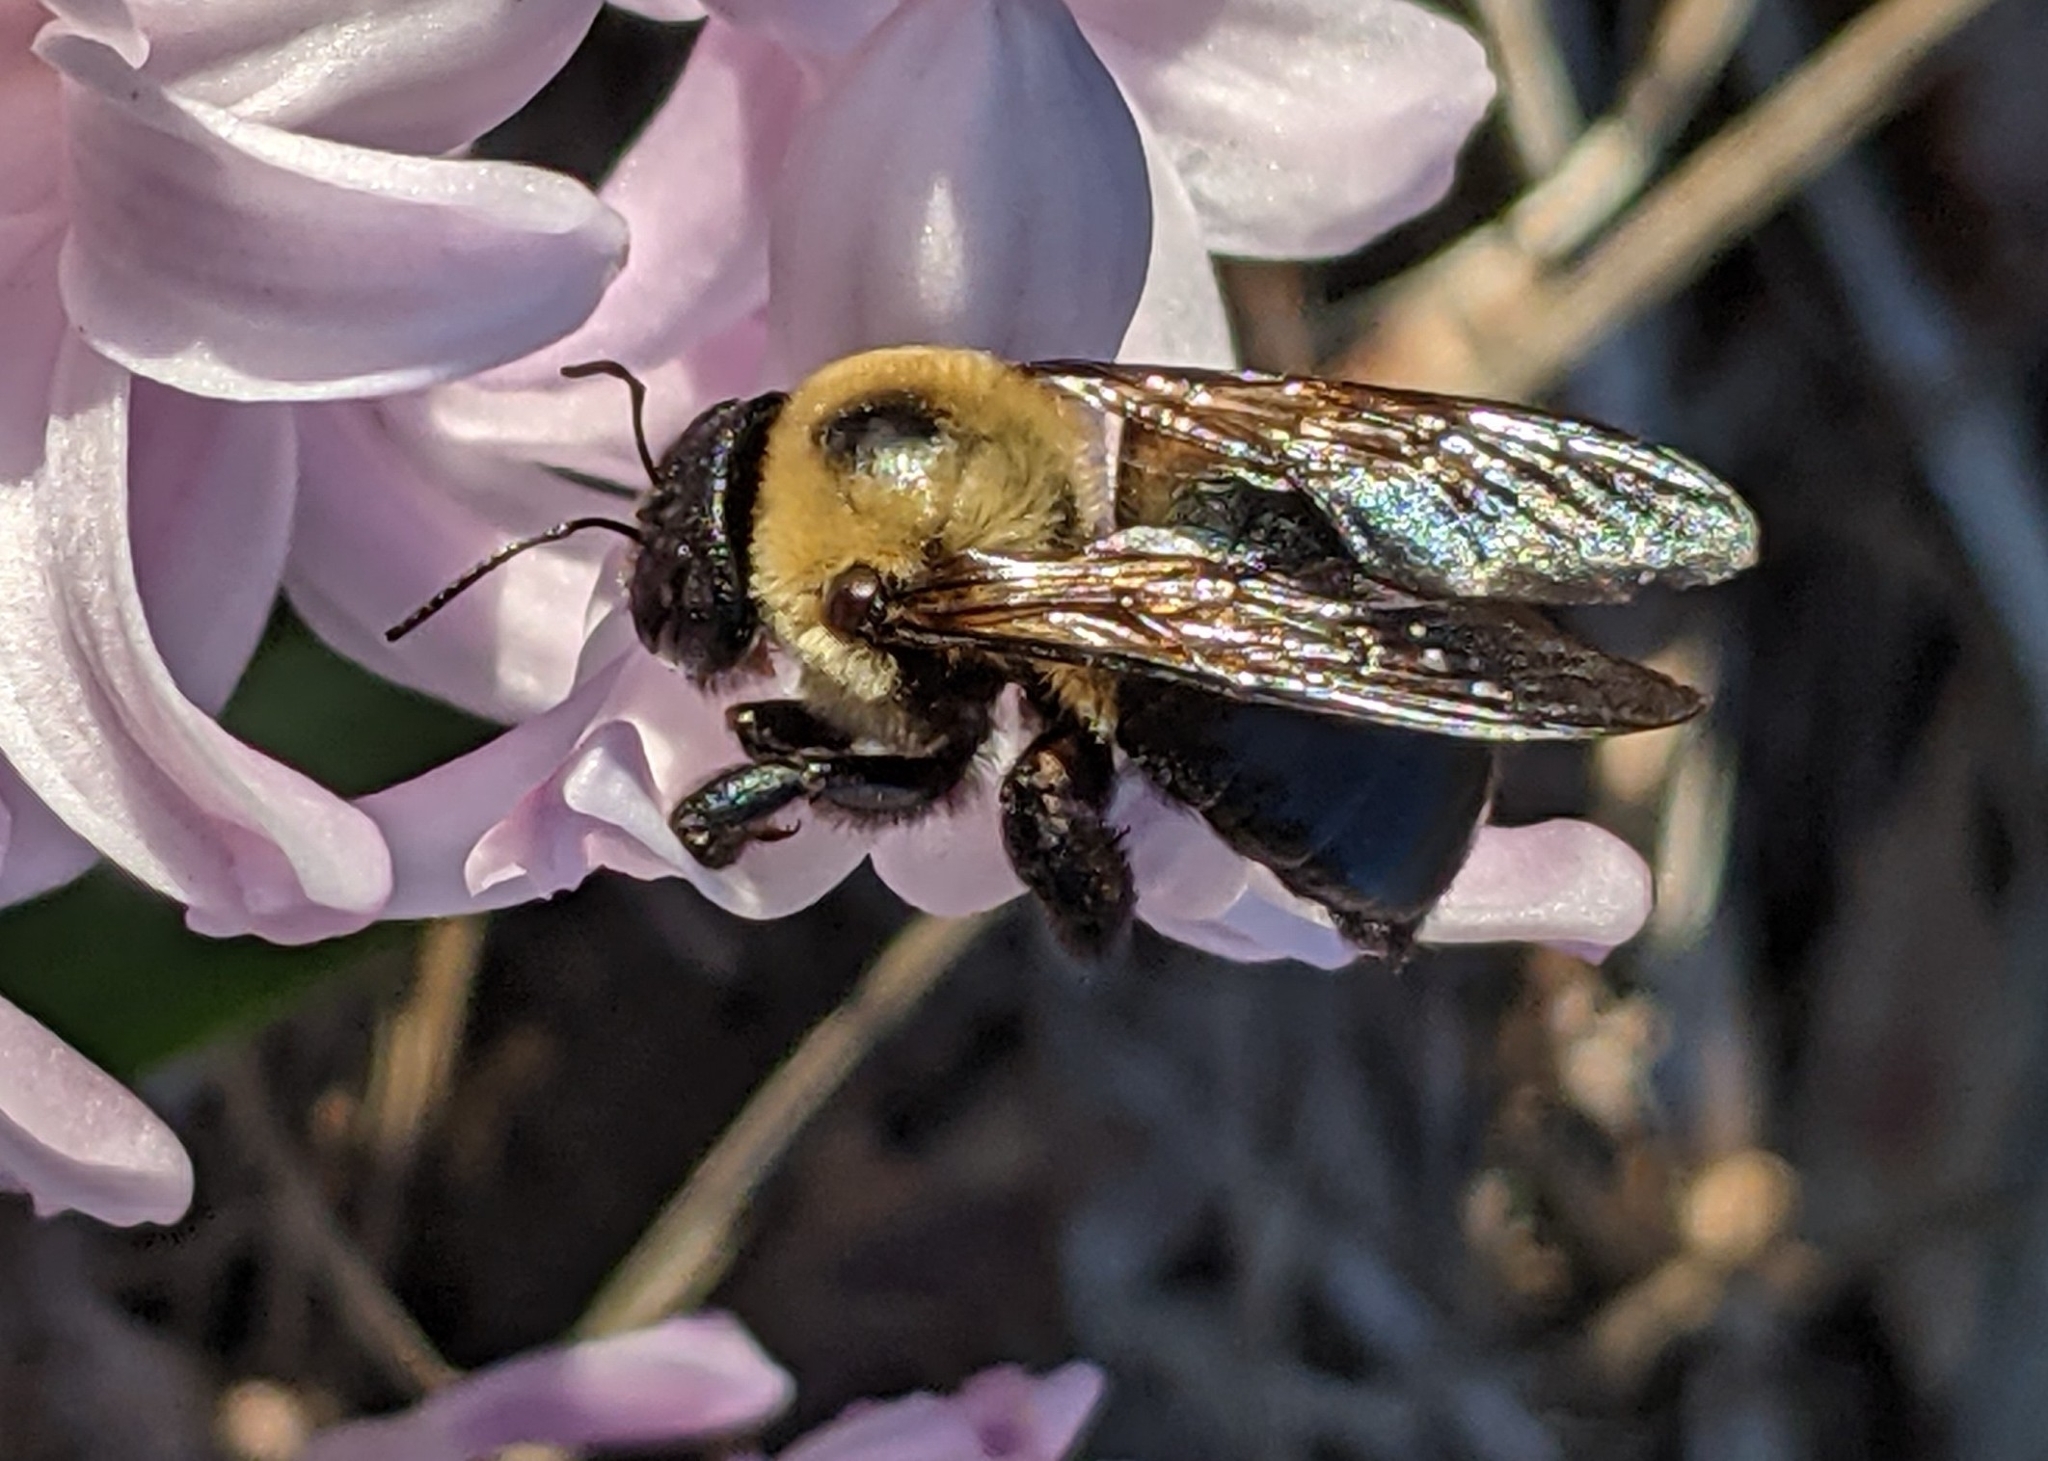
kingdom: Animalia
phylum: Arthropoda
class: Insecta
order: Hymenoptera
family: Apidae
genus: Xylocopa
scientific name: Xylocopa virginica
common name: Carpenter bee
